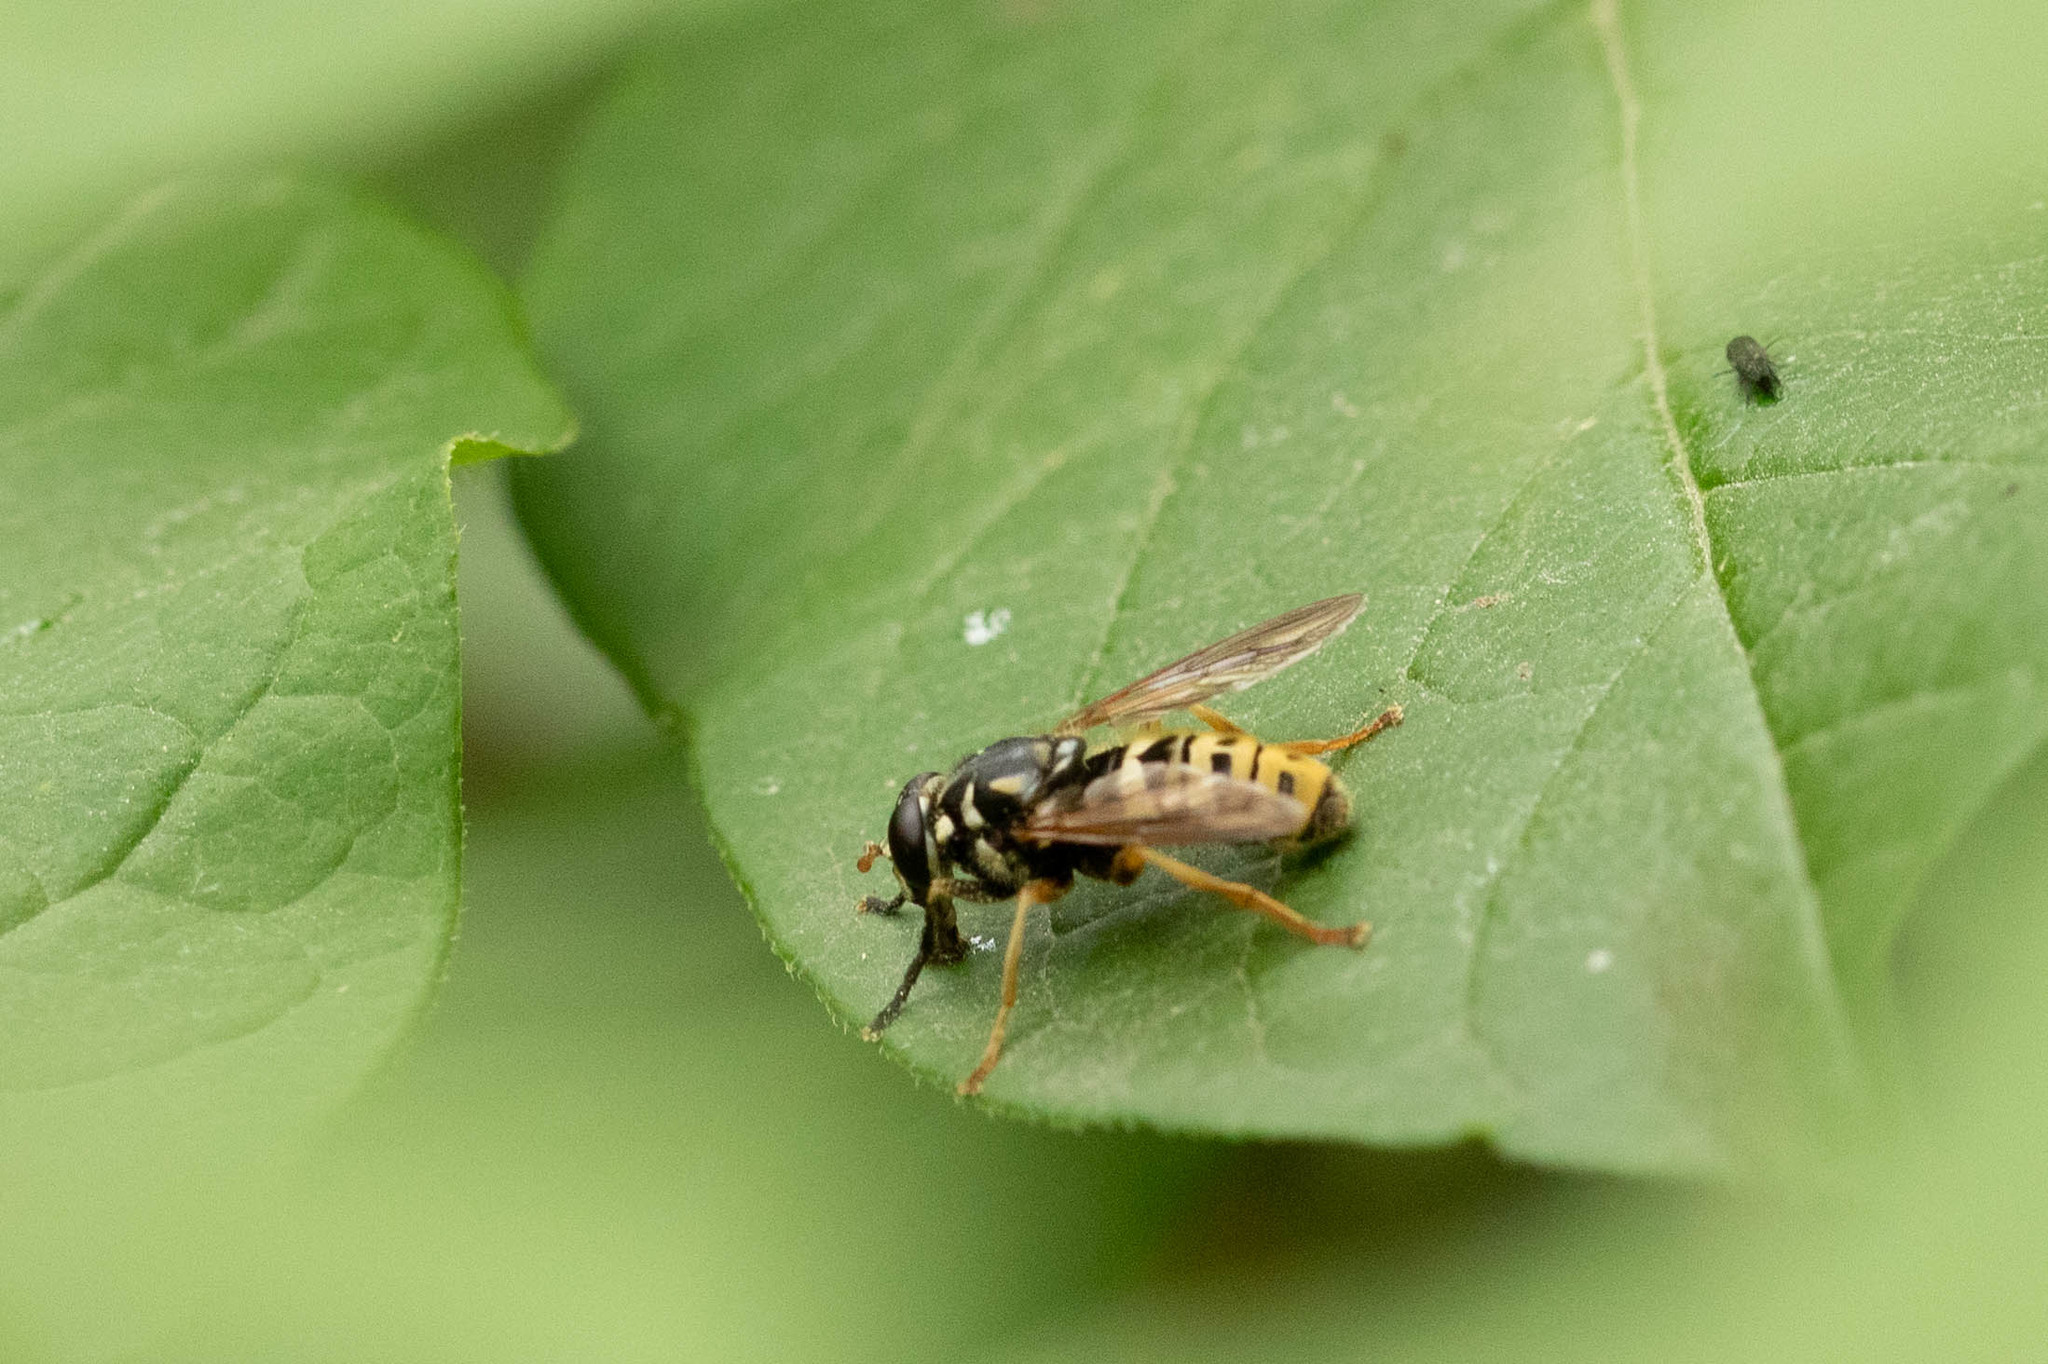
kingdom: Animalia
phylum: Arthropoda
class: Insecta
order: Diptera
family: Syrphidae
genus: Temnostoma
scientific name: Temnostoma excentricum
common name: Black-spotted falsehorn
